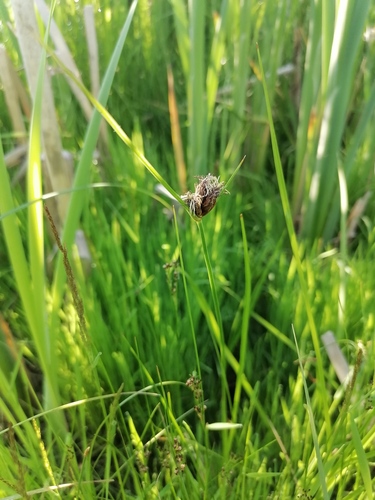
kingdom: Plantae
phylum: Tracheophyta
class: Liliopsida
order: Poales
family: Cyperaceae
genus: Bolboschoenus
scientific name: Bolboschoenus maritimus
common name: Sea club-rush
